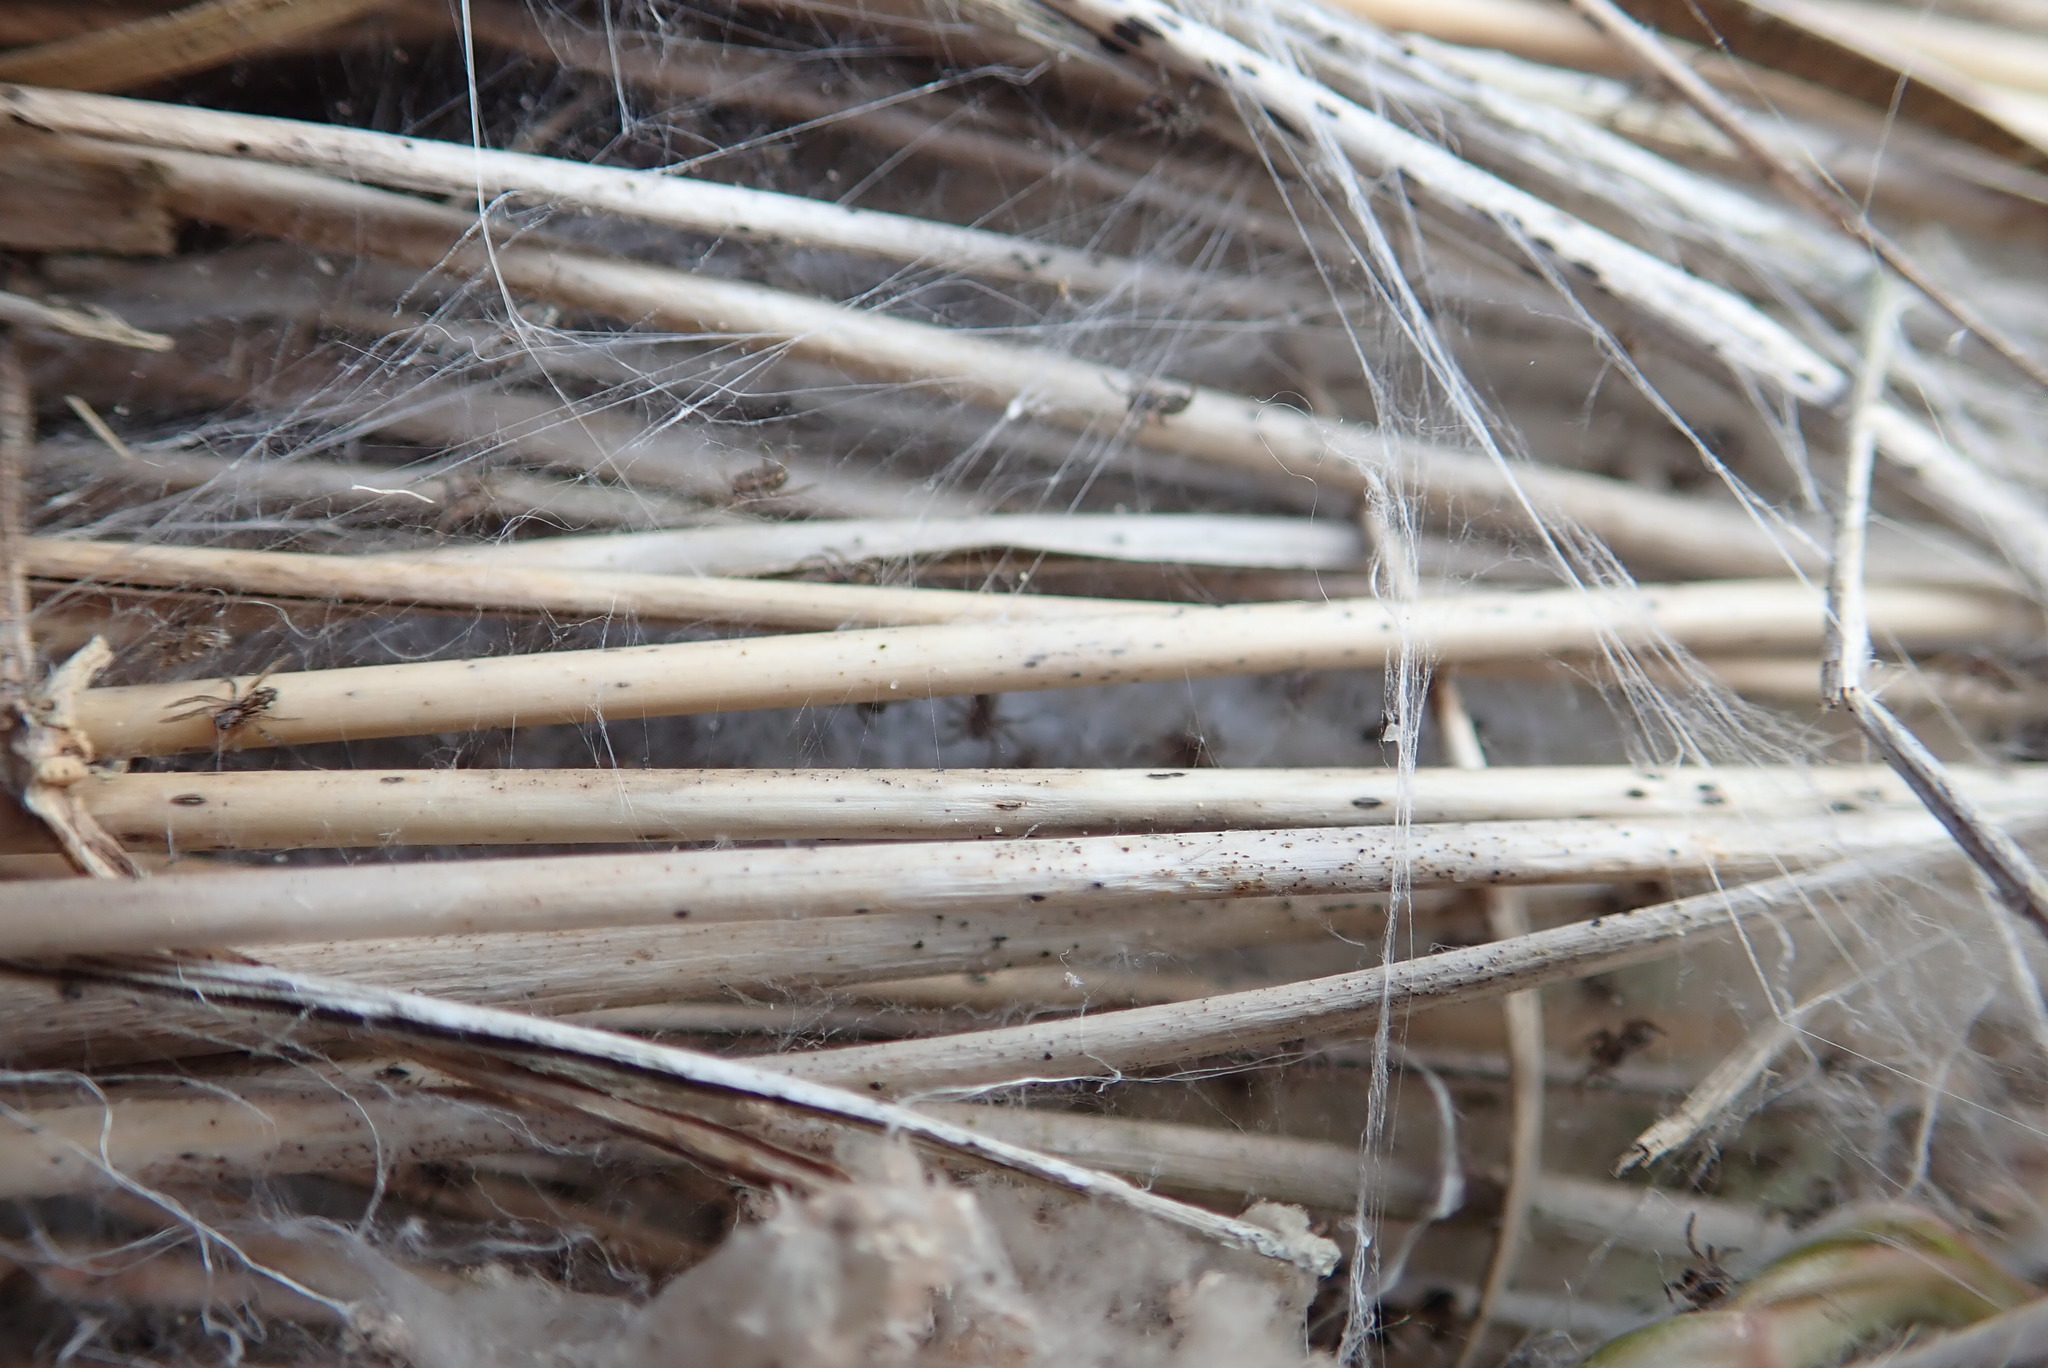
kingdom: Animalia
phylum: Arthropoda
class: Arachnida
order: Araneae
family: Pisauridae
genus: Dolomedes
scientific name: Dolomedes minor
